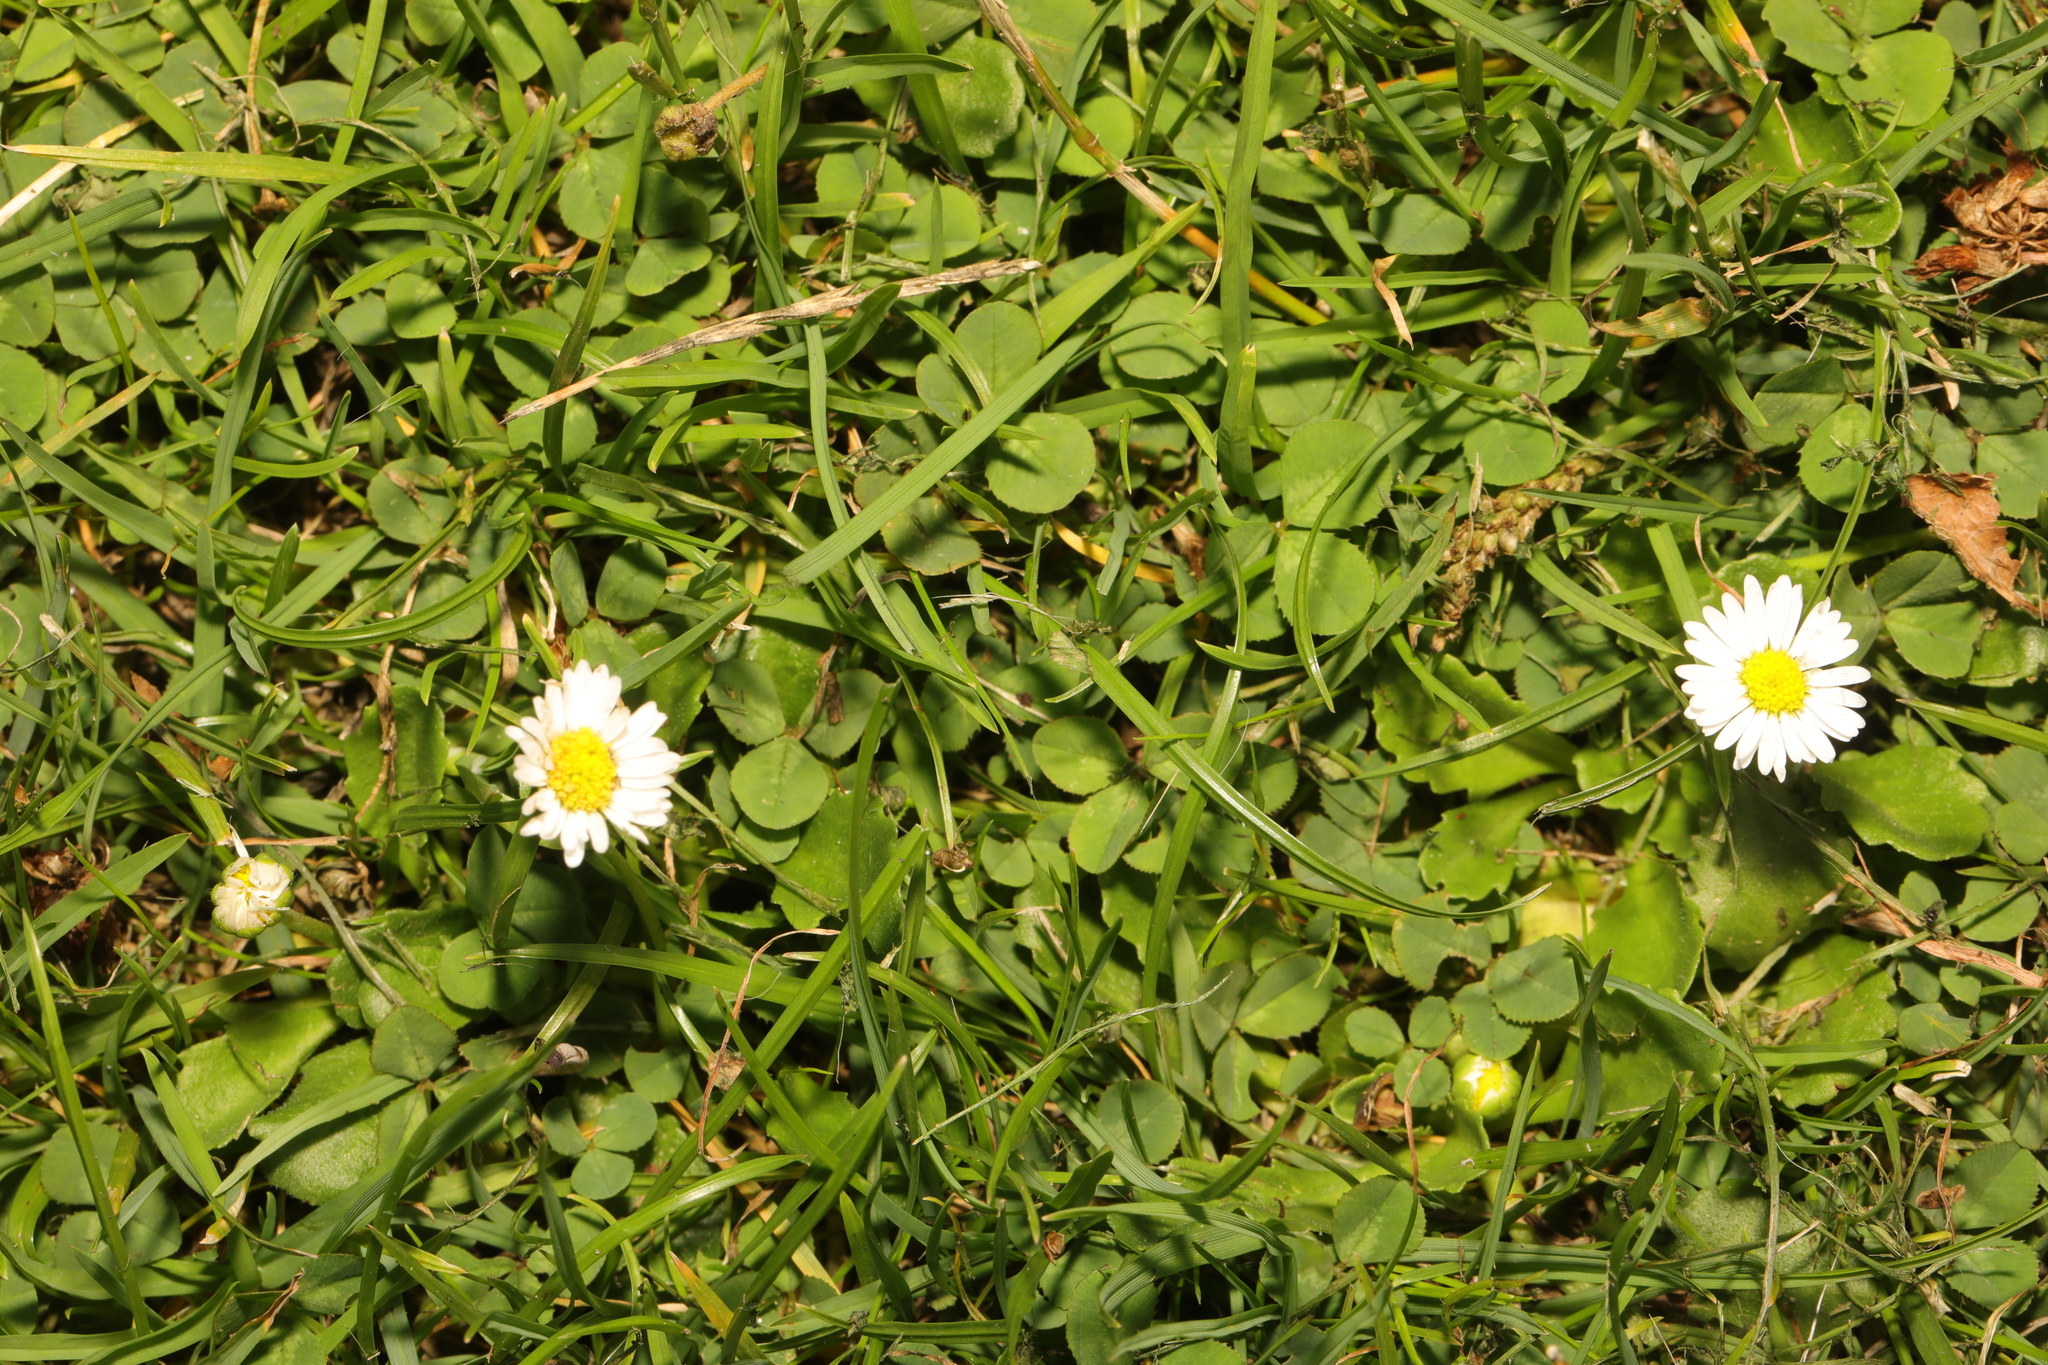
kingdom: Plantae
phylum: Tracheophyta
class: Magnoliopsida
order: Asterales
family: Asteraceae
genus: Bellis
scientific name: Bellis perennis
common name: Lawndaisy
